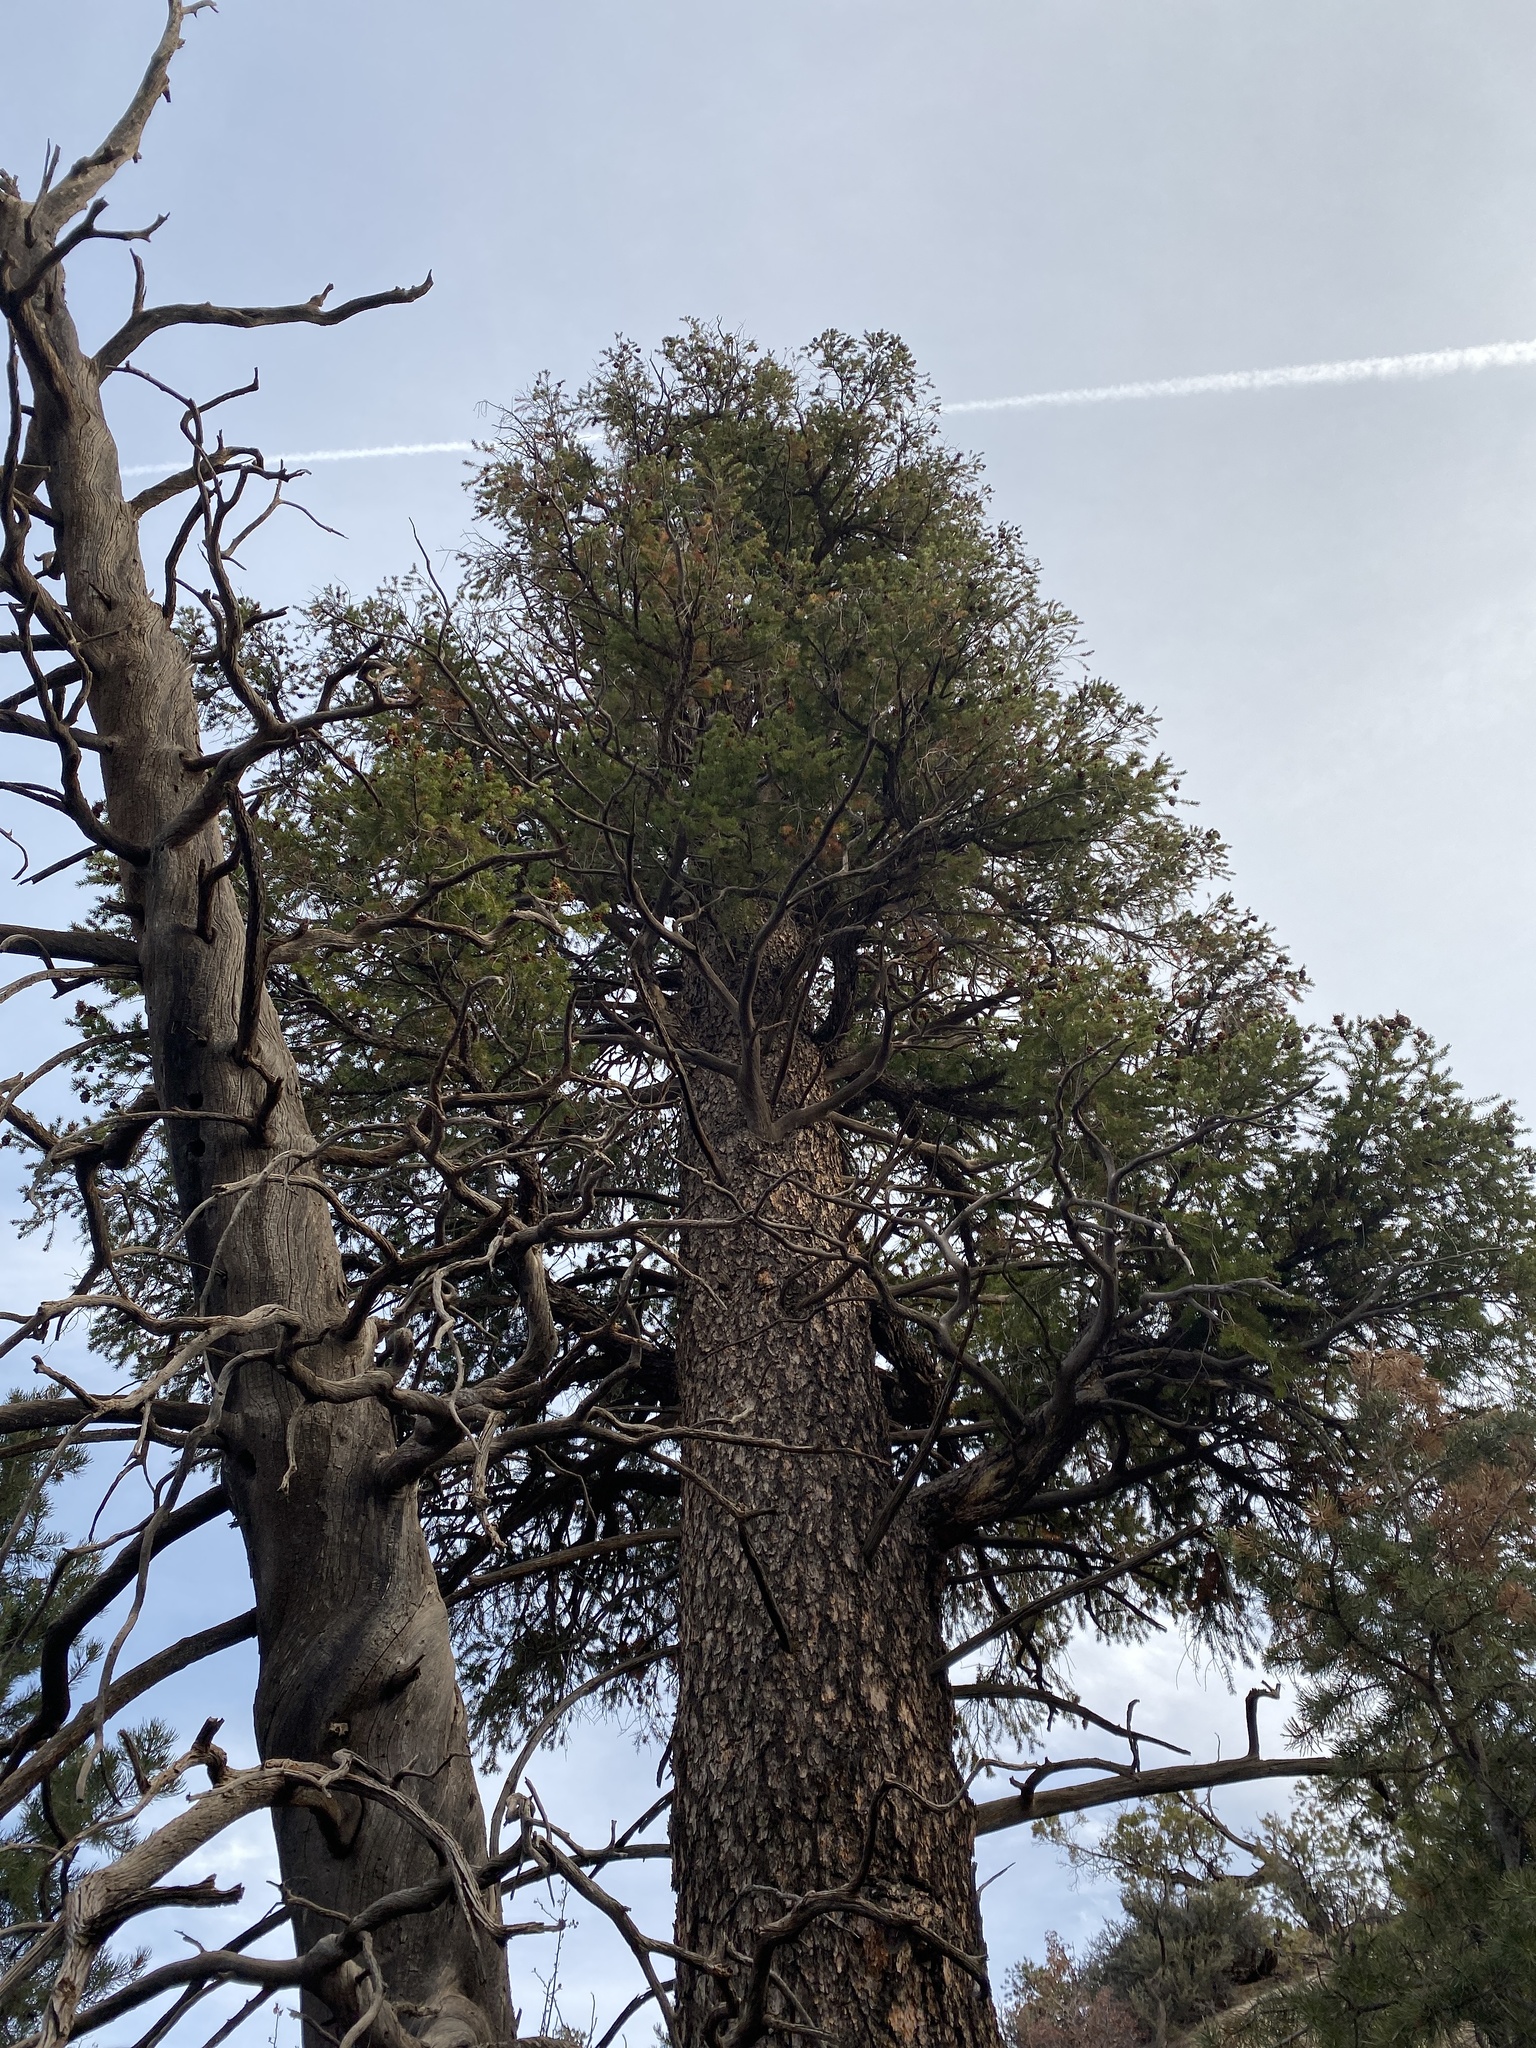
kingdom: Plantae
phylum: Tracheophyta
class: Pinopsida
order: Pinales
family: Pinaceae
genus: Pseudotsuga
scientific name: Pseudotsuga menziesii
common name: Douglas fir
